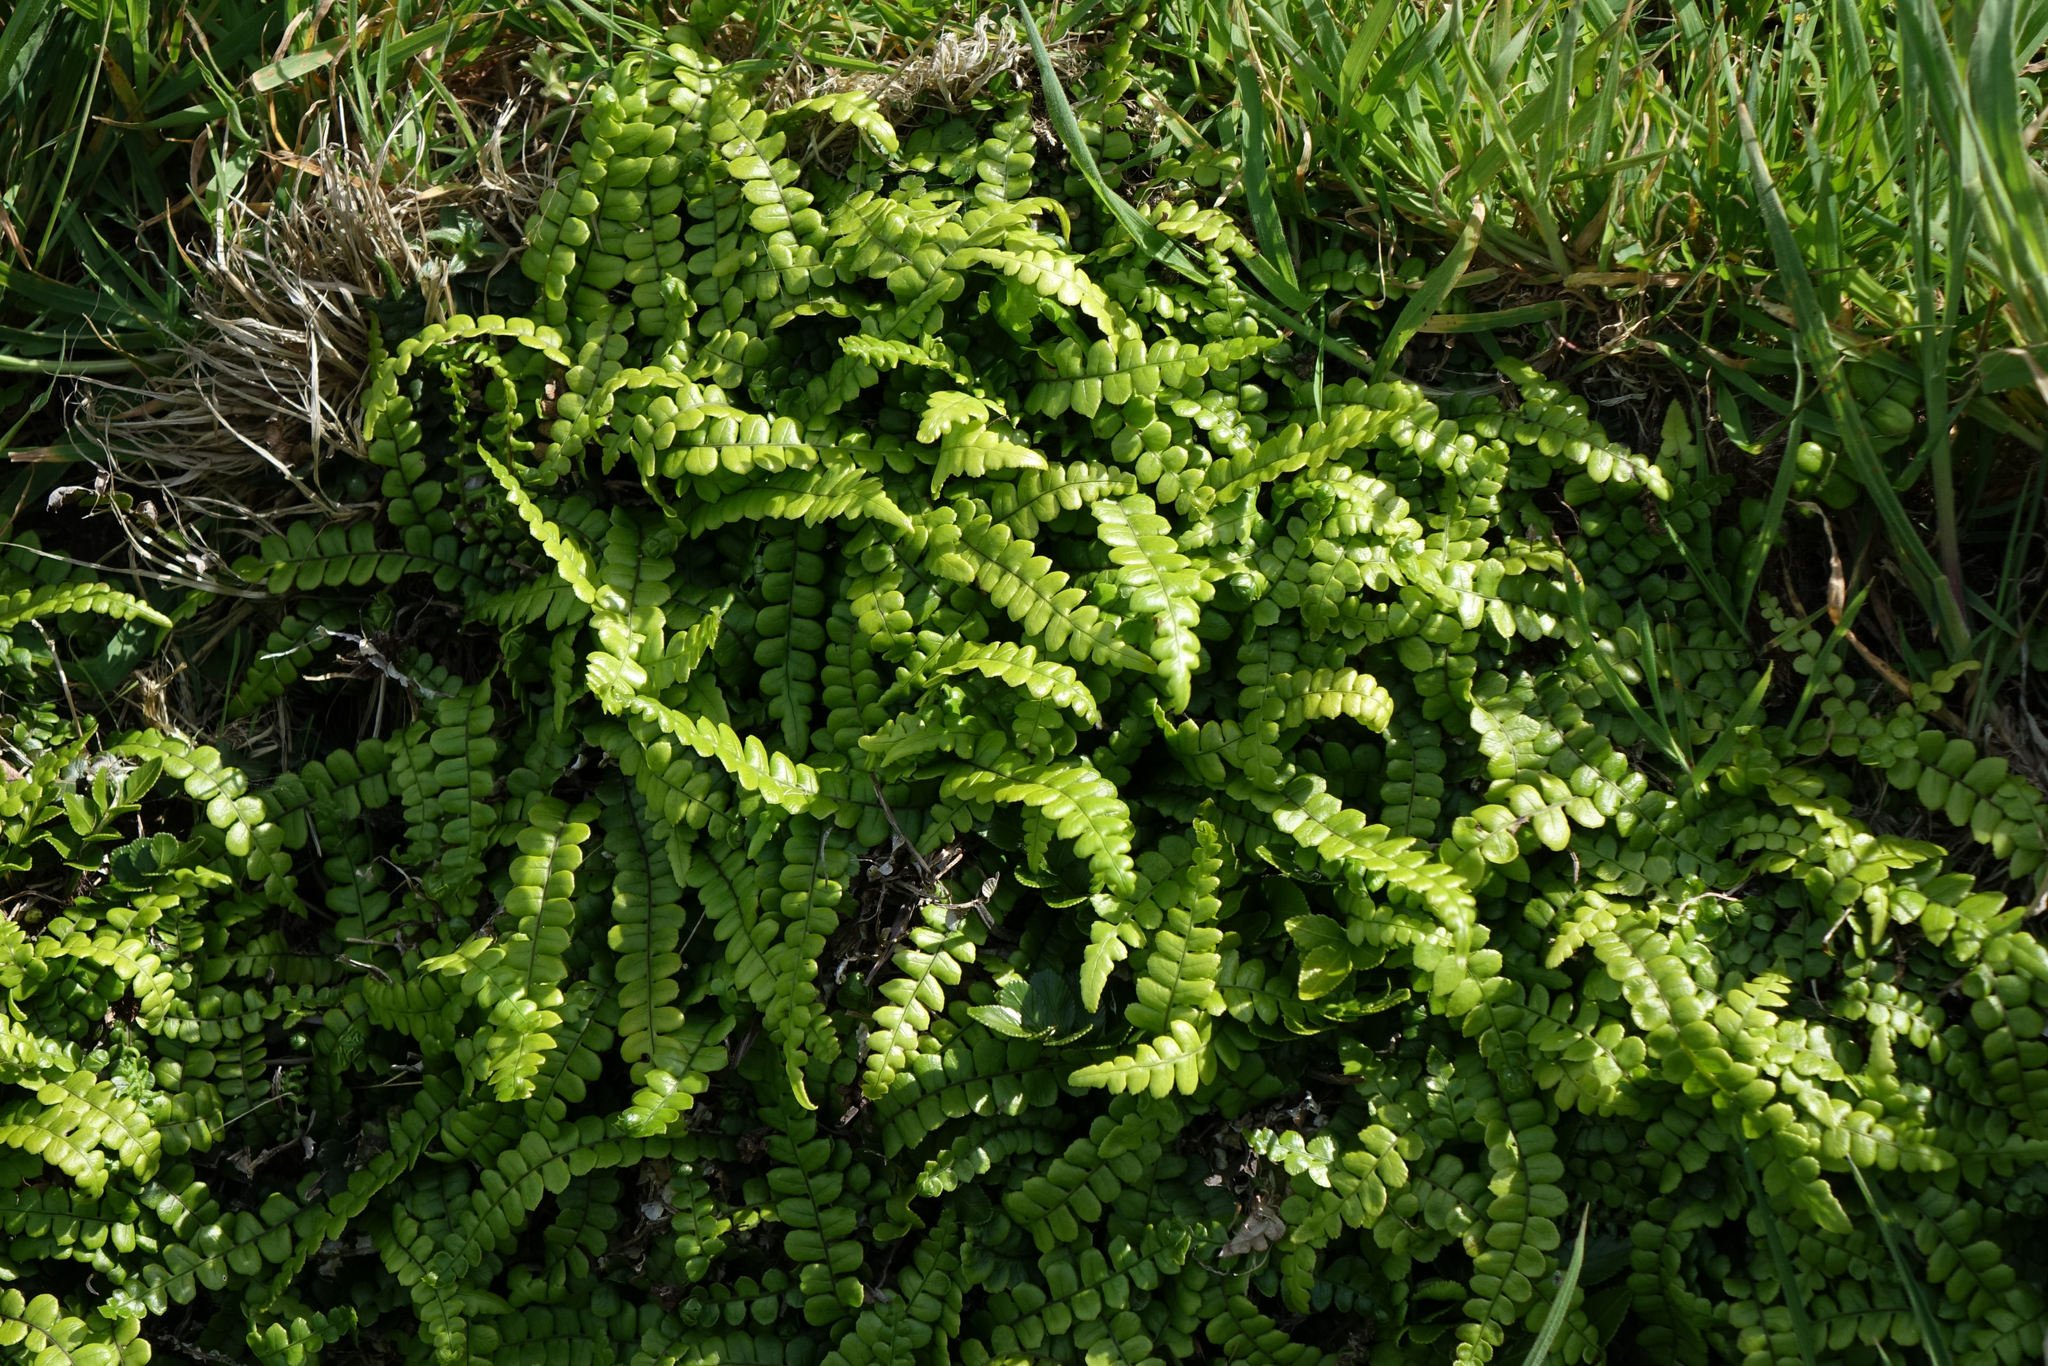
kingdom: Plantae
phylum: Tracheophyta
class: Polypodiopsida
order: Polypodiales
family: Blechnaceae
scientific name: Blechnaceae
